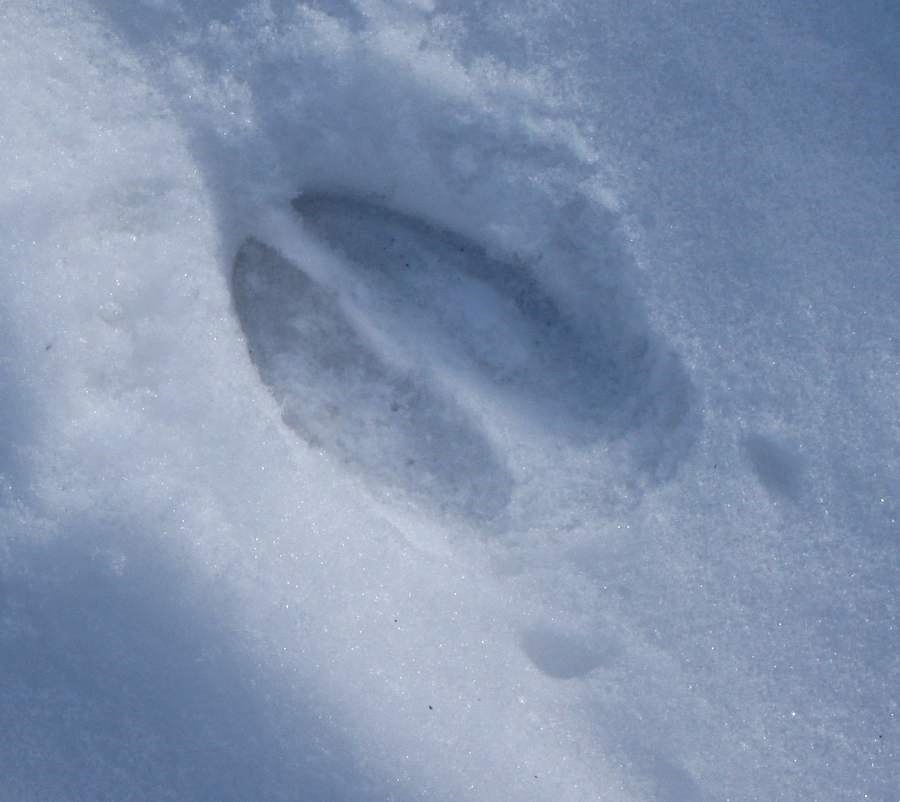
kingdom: Animalia
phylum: Chordata
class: Mammalia
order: Artiodactyla
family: Cervidae
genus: Odocoileus
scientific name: Odocoileus virginianus
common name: White-tailed deer
